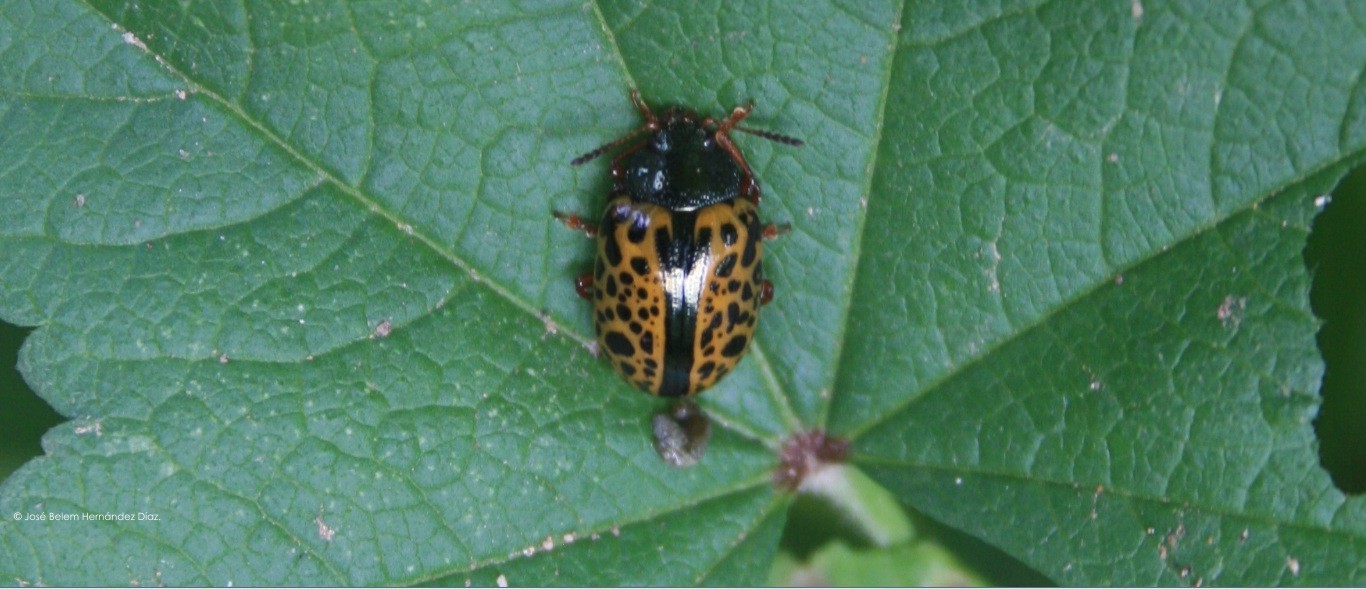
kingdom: Animalia
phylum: Arthropoda
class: Insecta
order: Coleoptera
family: Chrysomelidae
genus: Calligrapha
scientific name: Calligrapha pantherina
